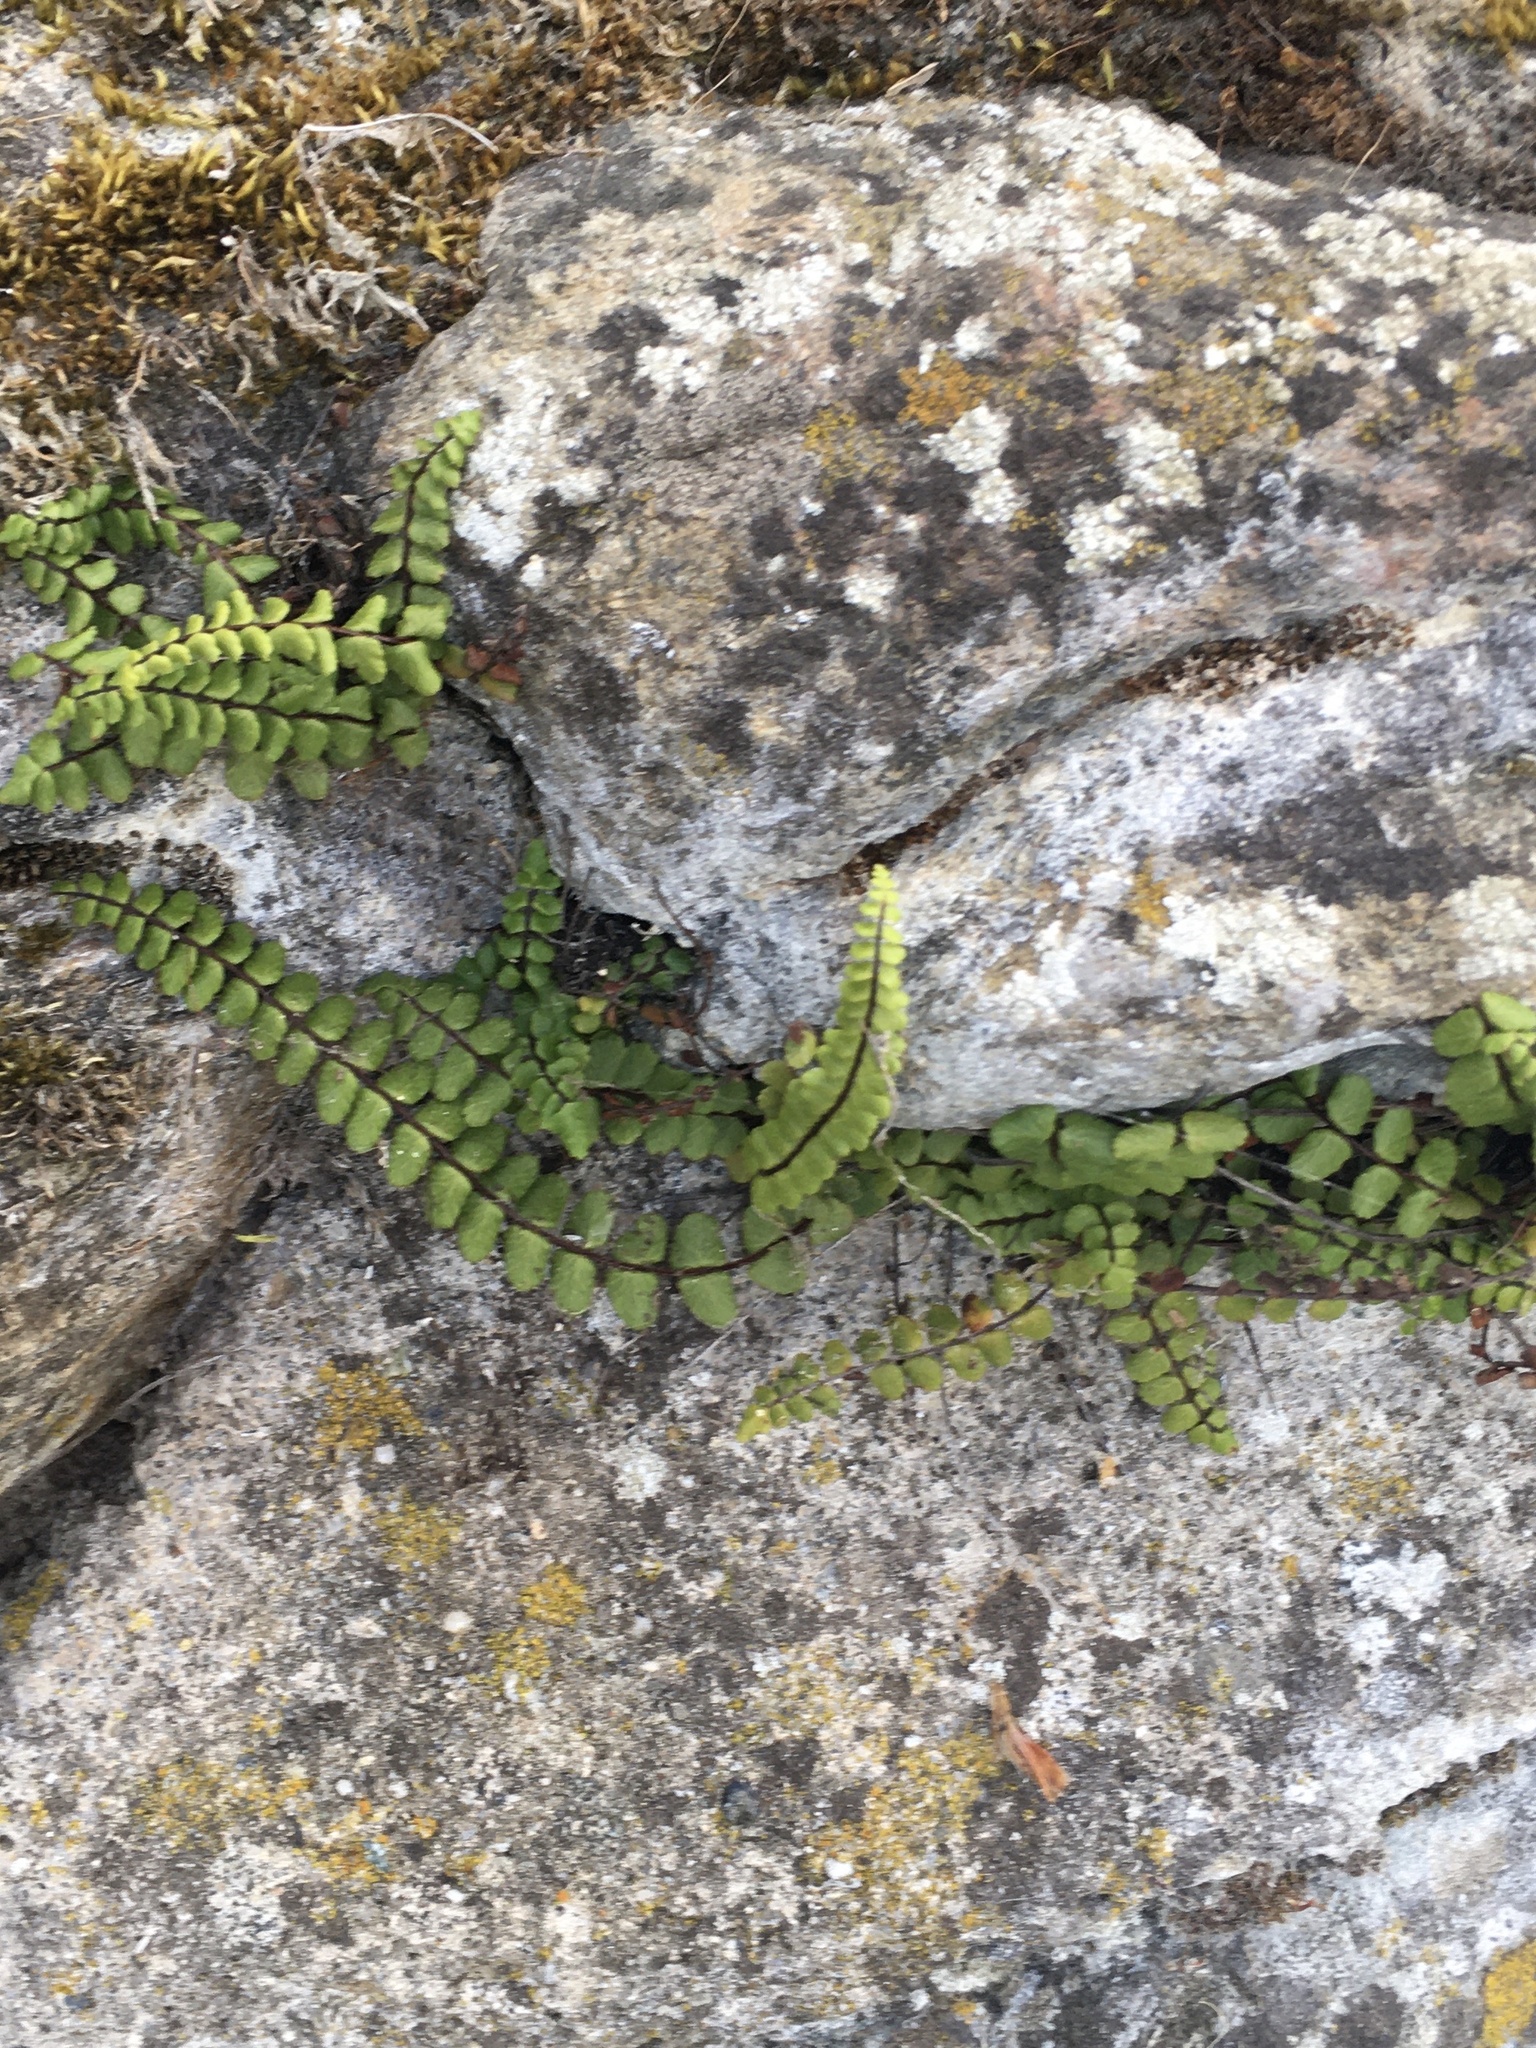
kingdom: Plantae
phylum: Tracheophyta
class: Polypodiopsida
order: Polypodiales
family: Aspleniaceae
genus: Asplenium
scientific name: Asplenium trichomanes
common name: Maidenhair spleenwort
